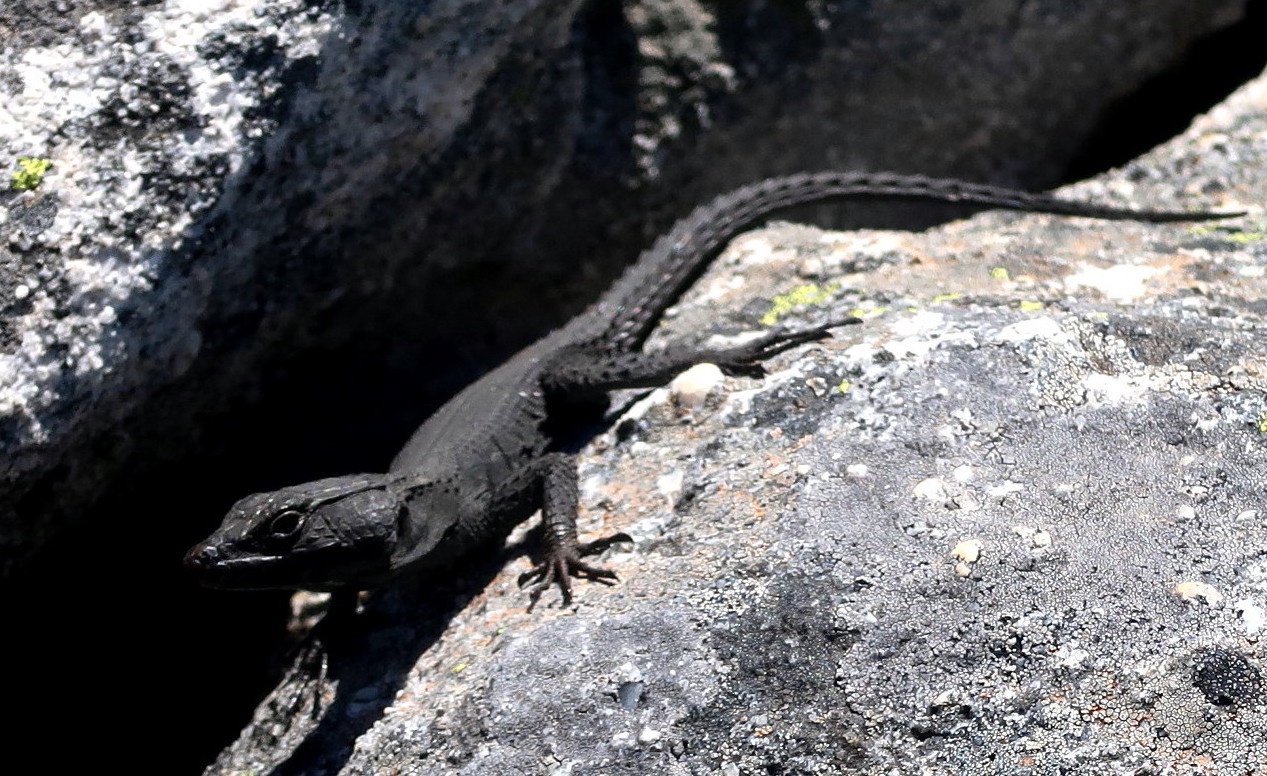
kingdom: Animalia
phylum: Chordata
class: Squamata
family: Cordylidae
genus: Hemicordylus
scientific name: Hemicordylus capensis
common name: Graceful crag lizard
